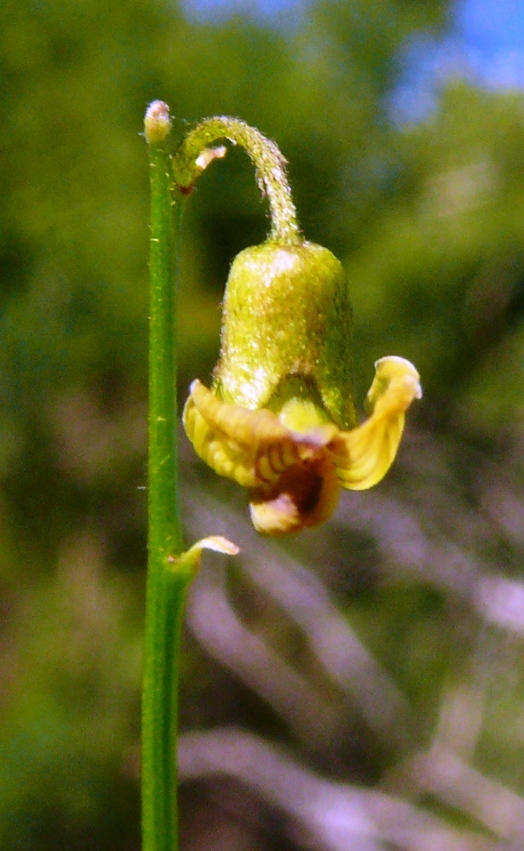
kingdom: Plantae
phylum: Tracheophyta
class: Magnoliopsida
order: Fabales
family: Fabaceae
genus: Lessertia
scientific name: Lessertia spinescens
